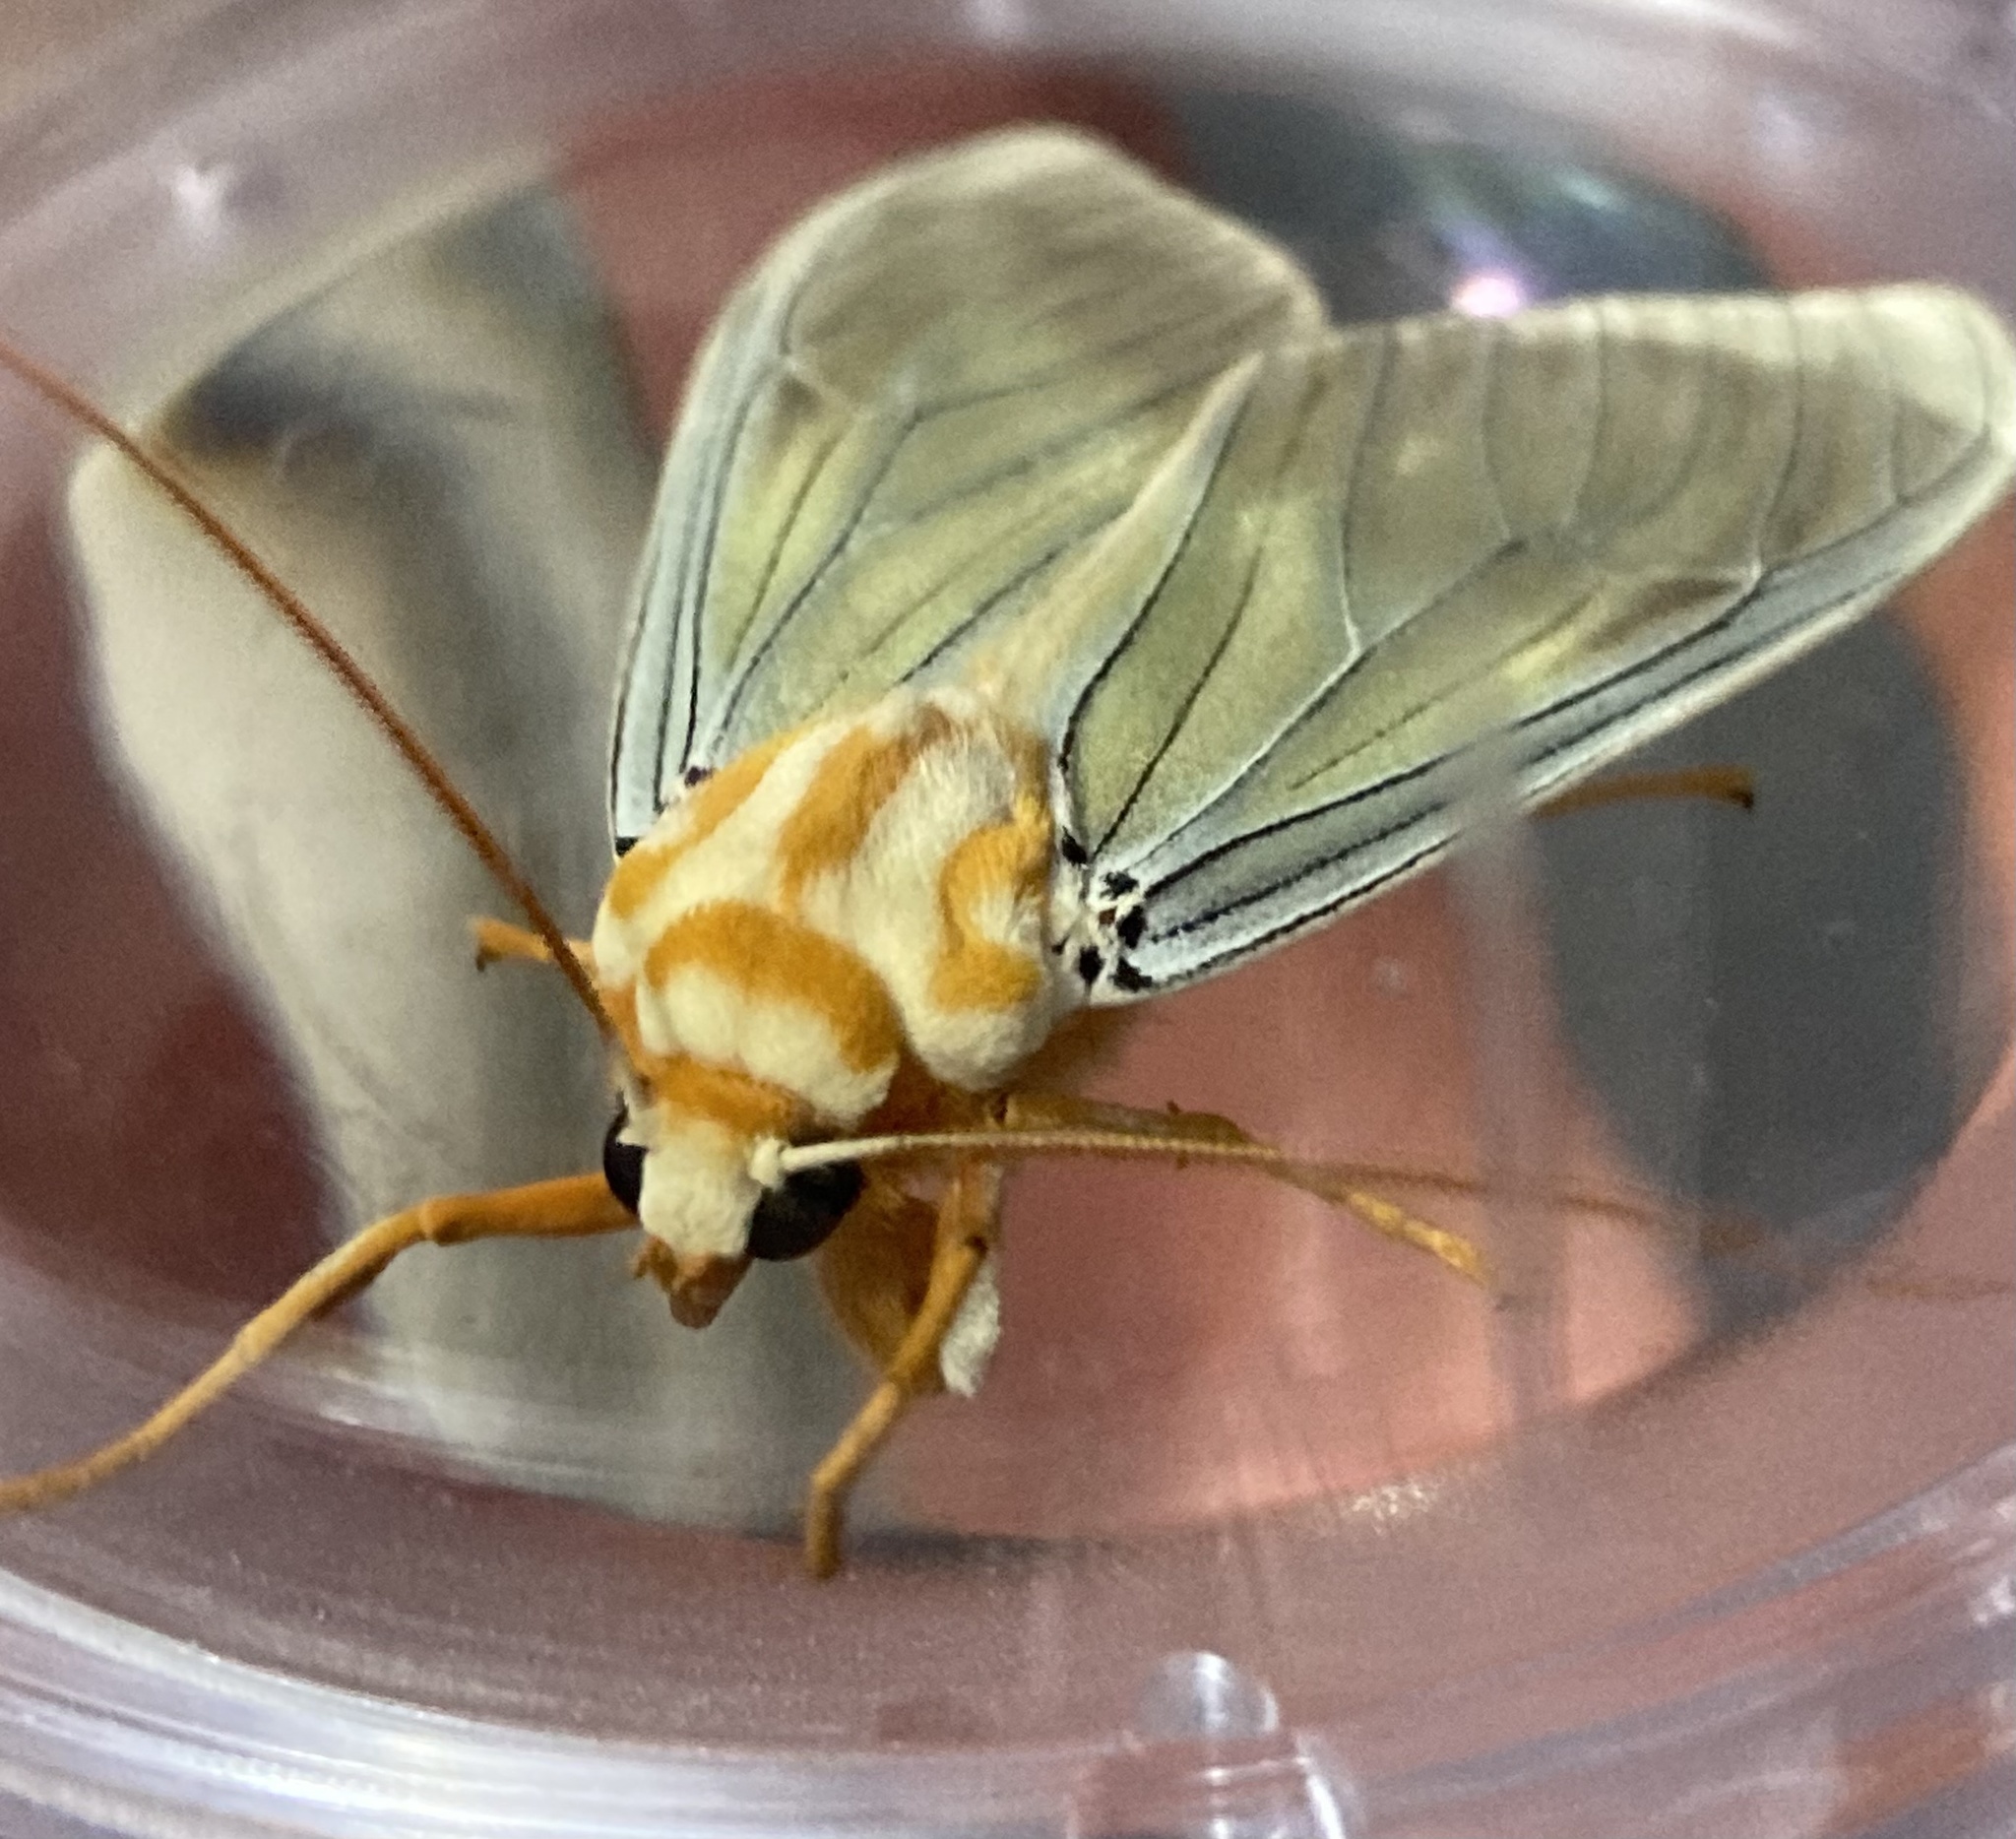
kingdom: Animalia
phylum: Arthropoda
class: Insecta
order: Lepidoptera
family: Erebidae
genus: Amastus
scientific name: Amastus thalassina
